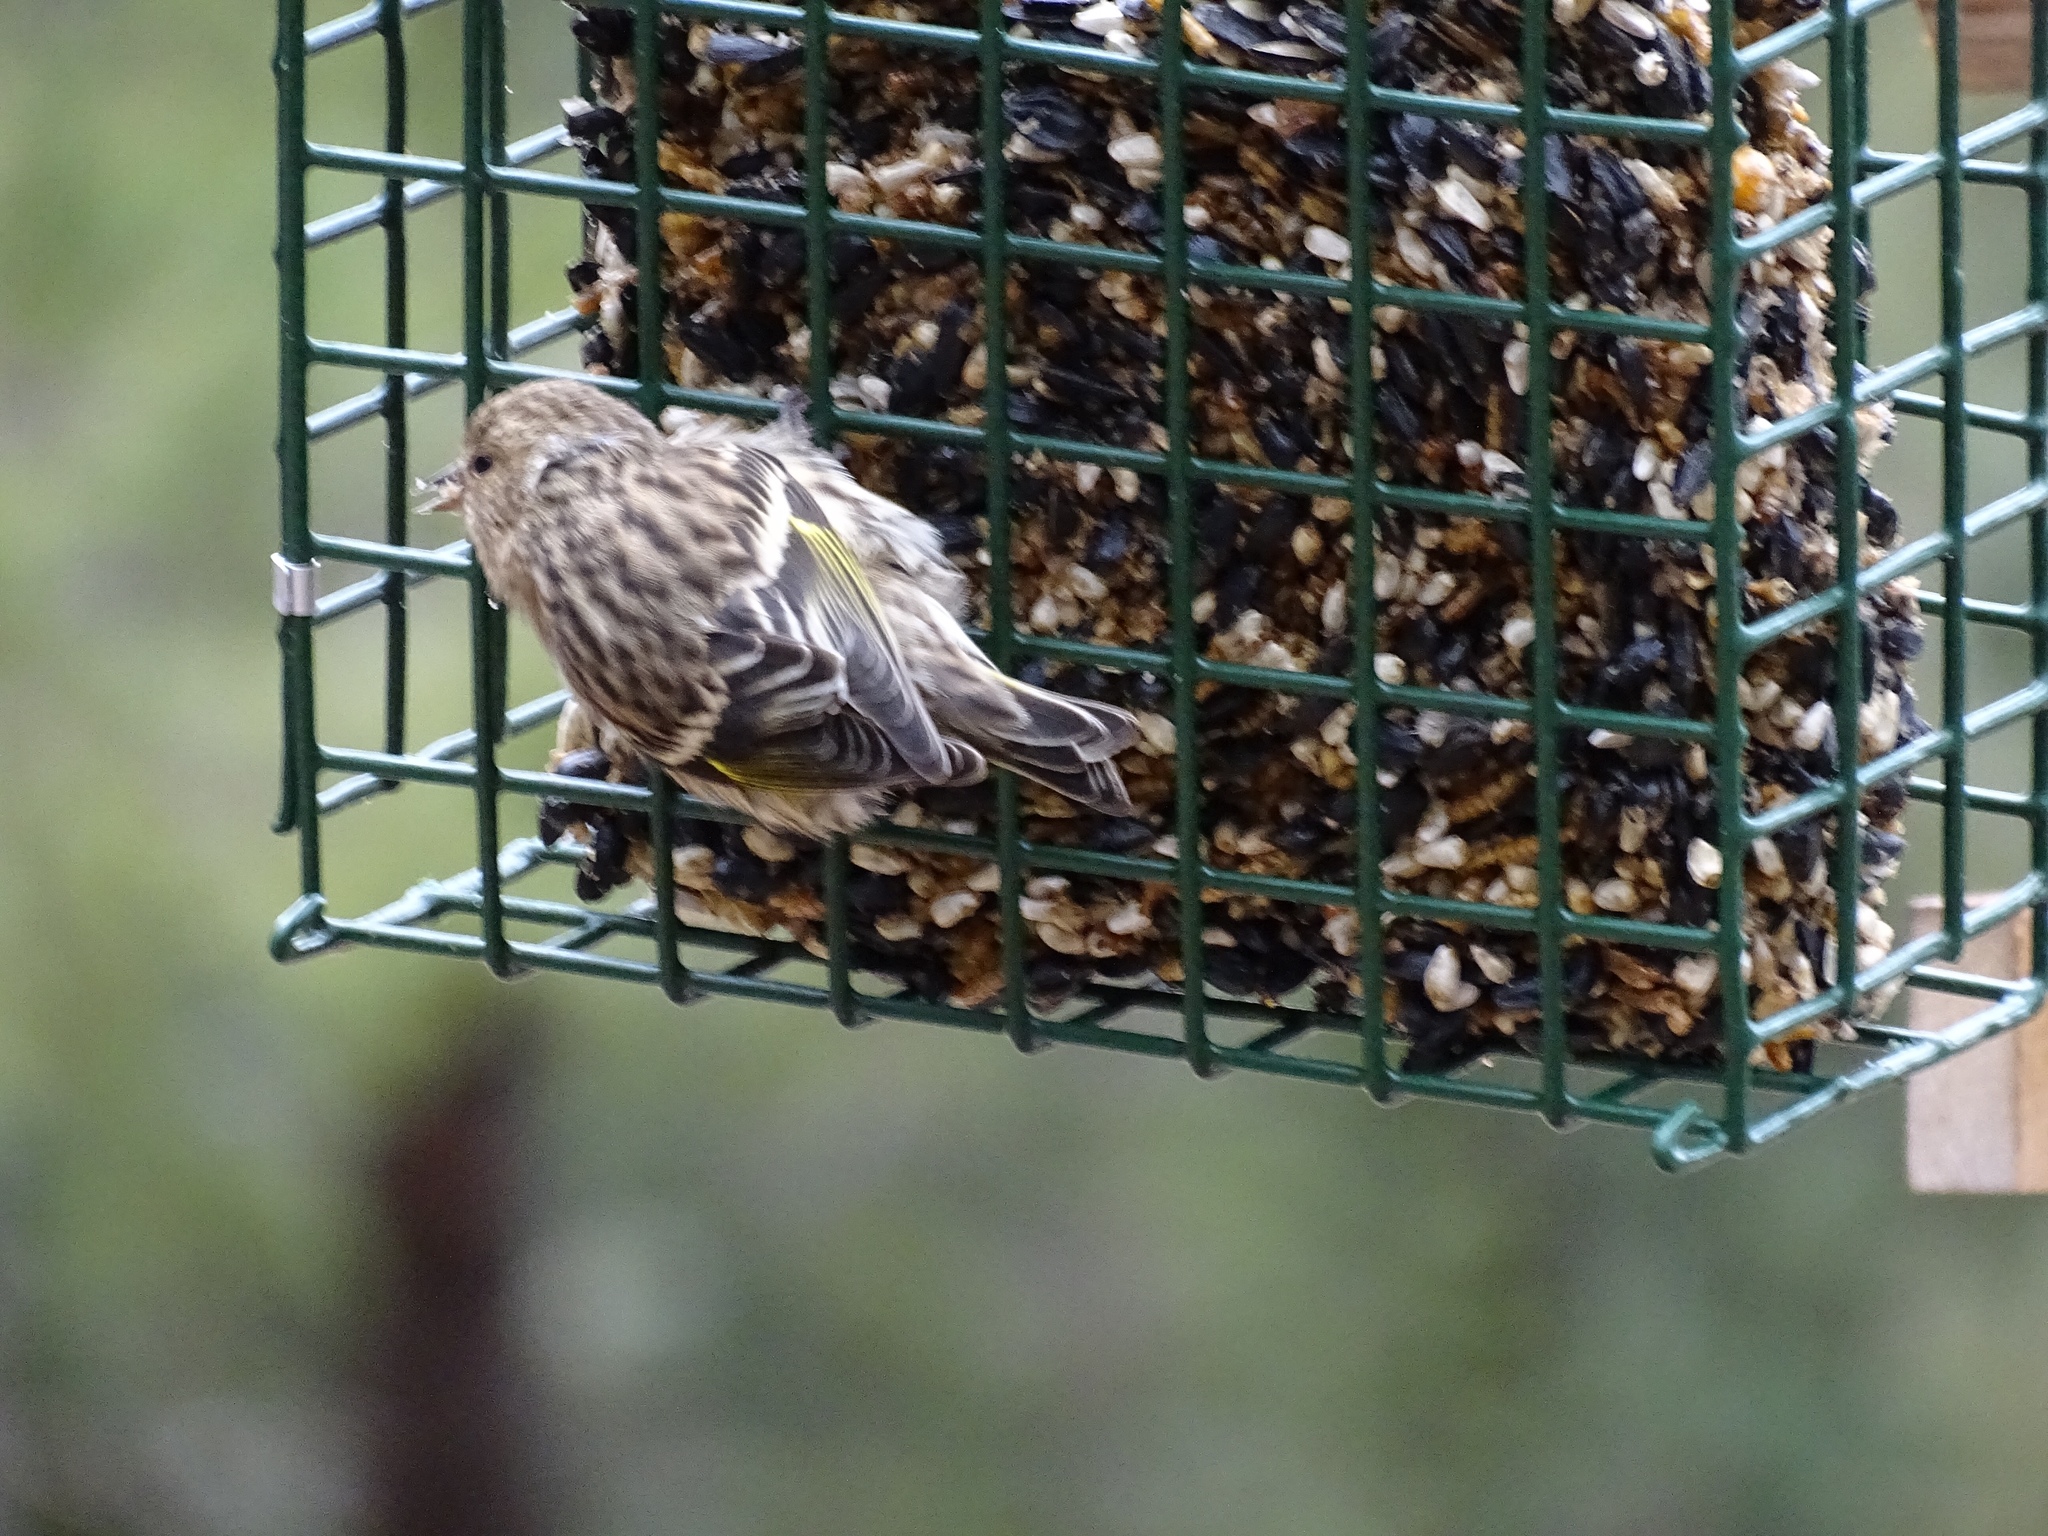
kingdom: Animalia
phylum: Chordata
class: Aves
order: Passeriformes
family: Fringillidae
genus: Spinus
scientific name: Spinus pinus
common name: Pine siskin
